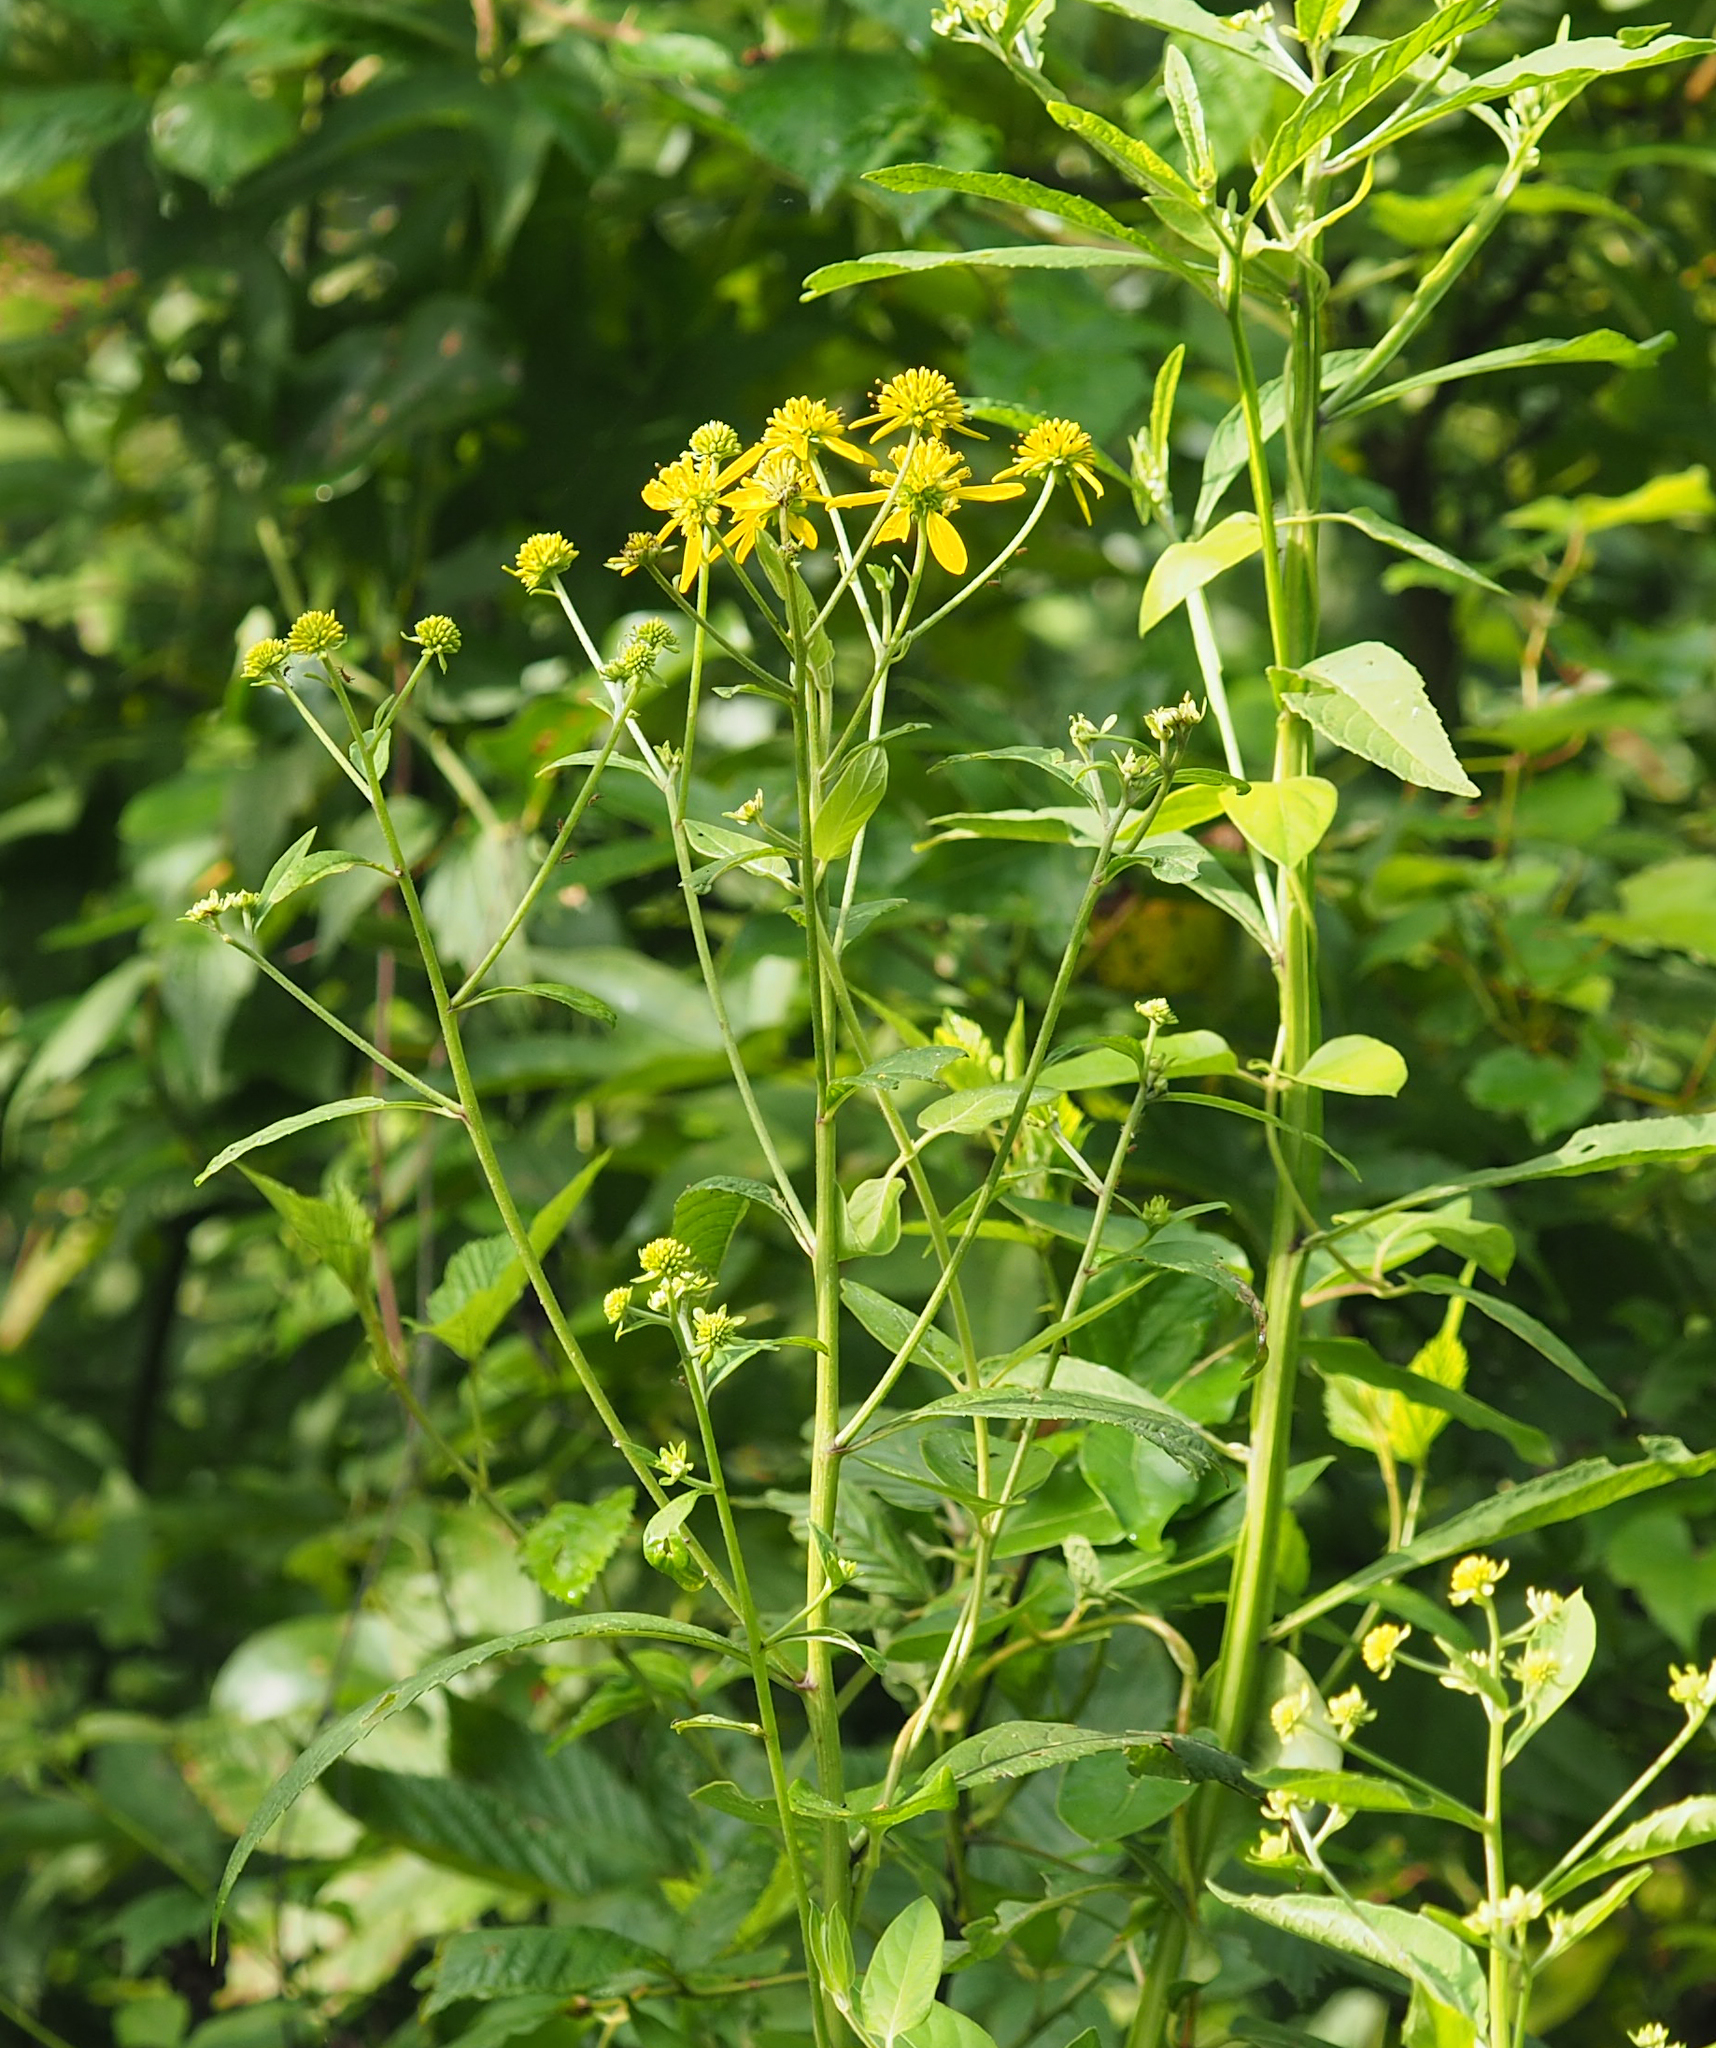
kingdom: Plantae
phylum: Tracheophyta
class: Magnoliopsida
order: Asterales
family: Asteraceae
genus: Verbesina
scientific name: Verbesina alternifolia
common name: Wingstem
